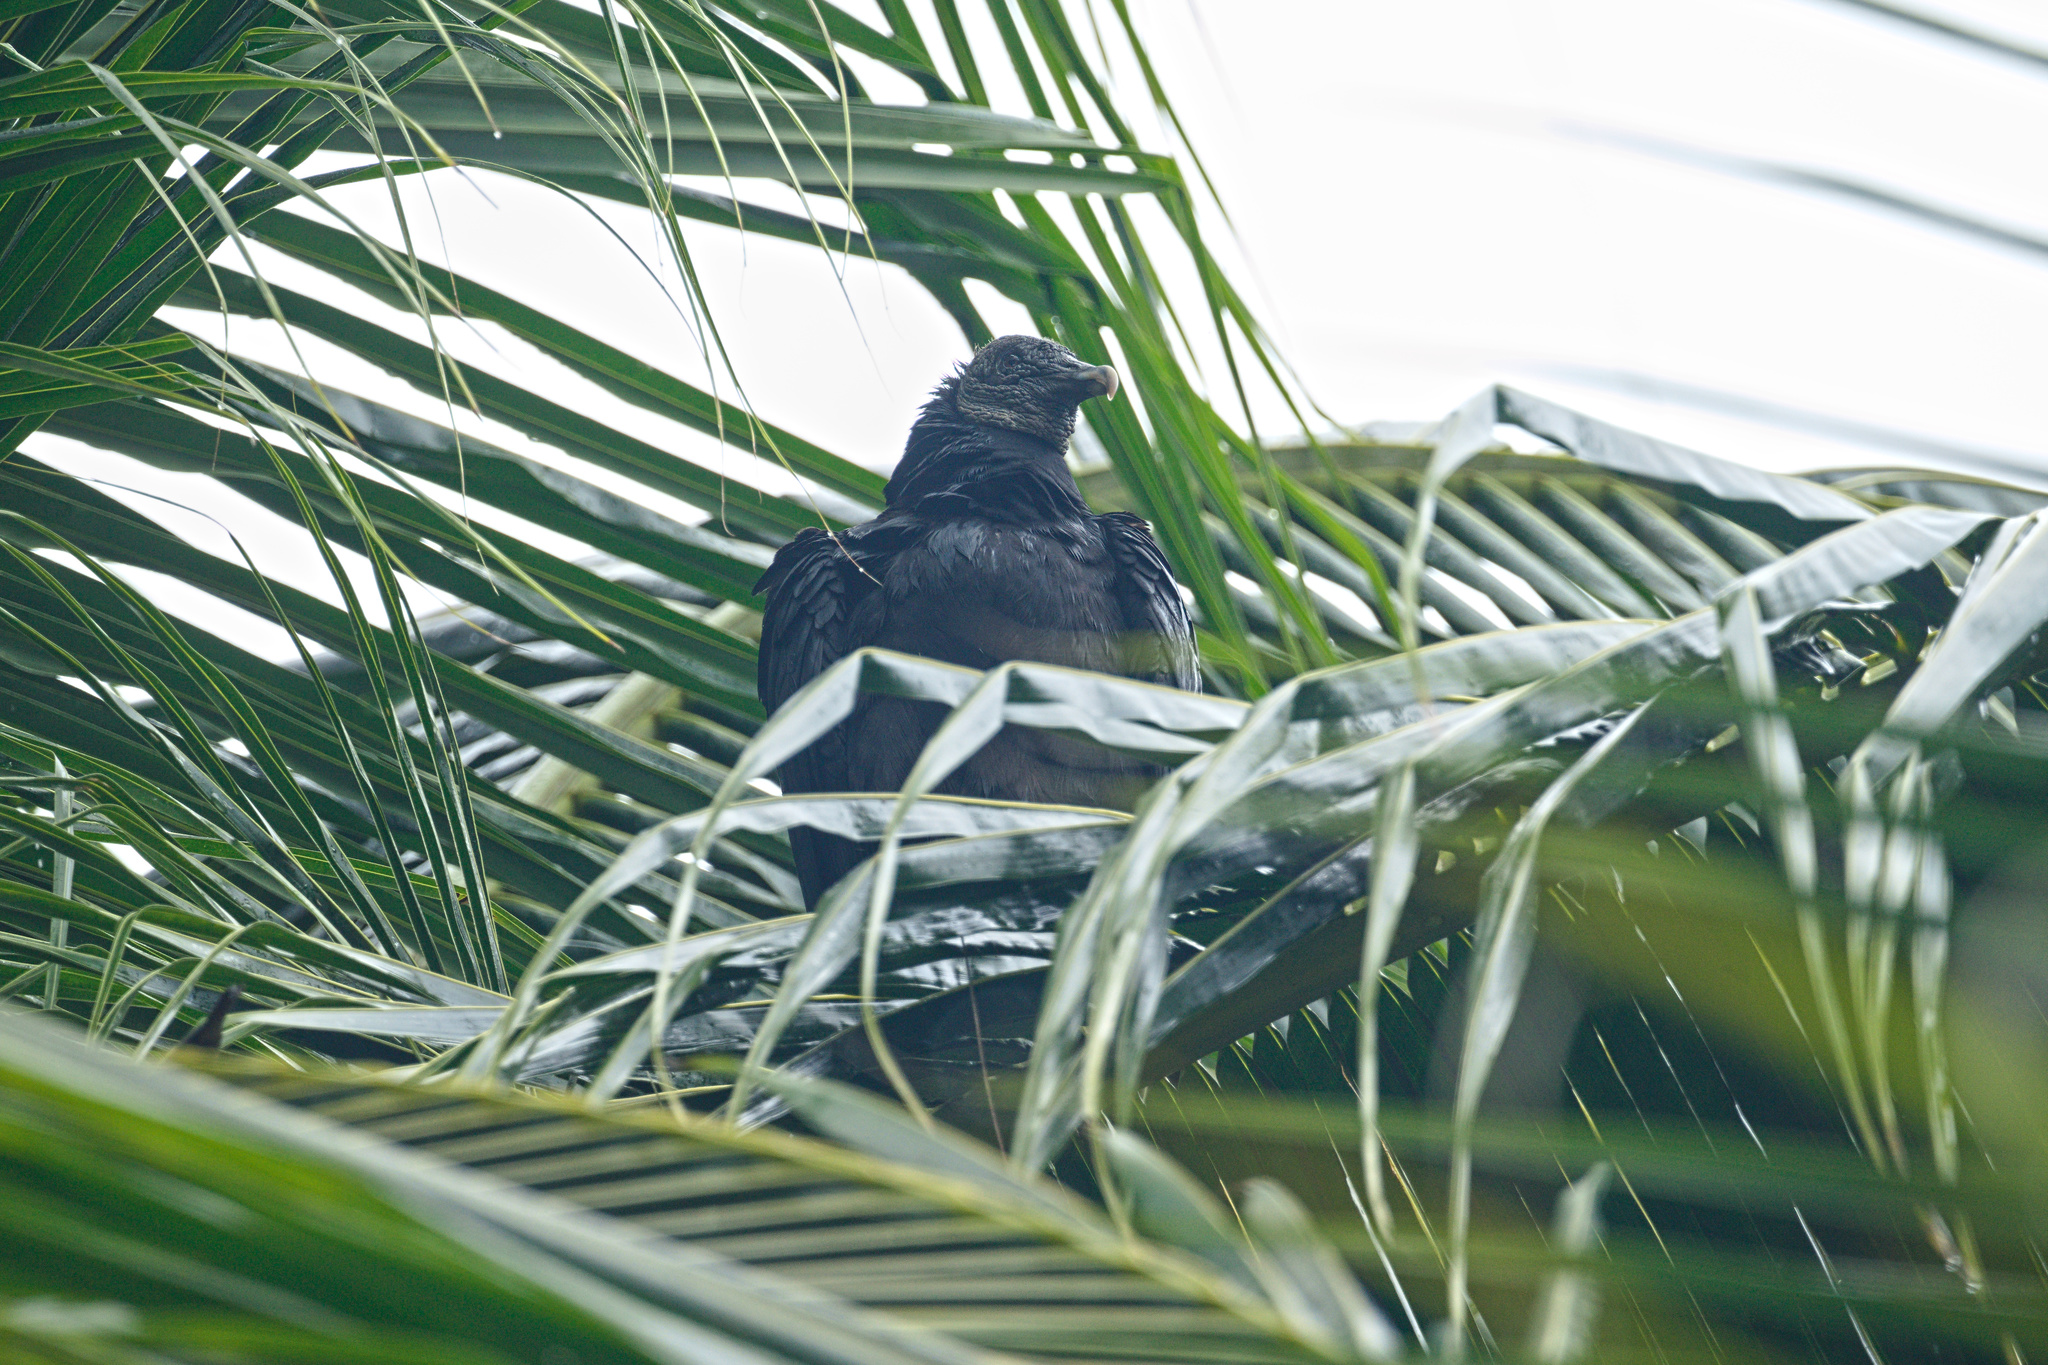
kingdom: Animalia
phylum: Chordata
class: Aves
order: Accipitriformes
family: Cathartidae
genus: Coragyps
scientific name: Coragyps atratus
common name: Black vulture
